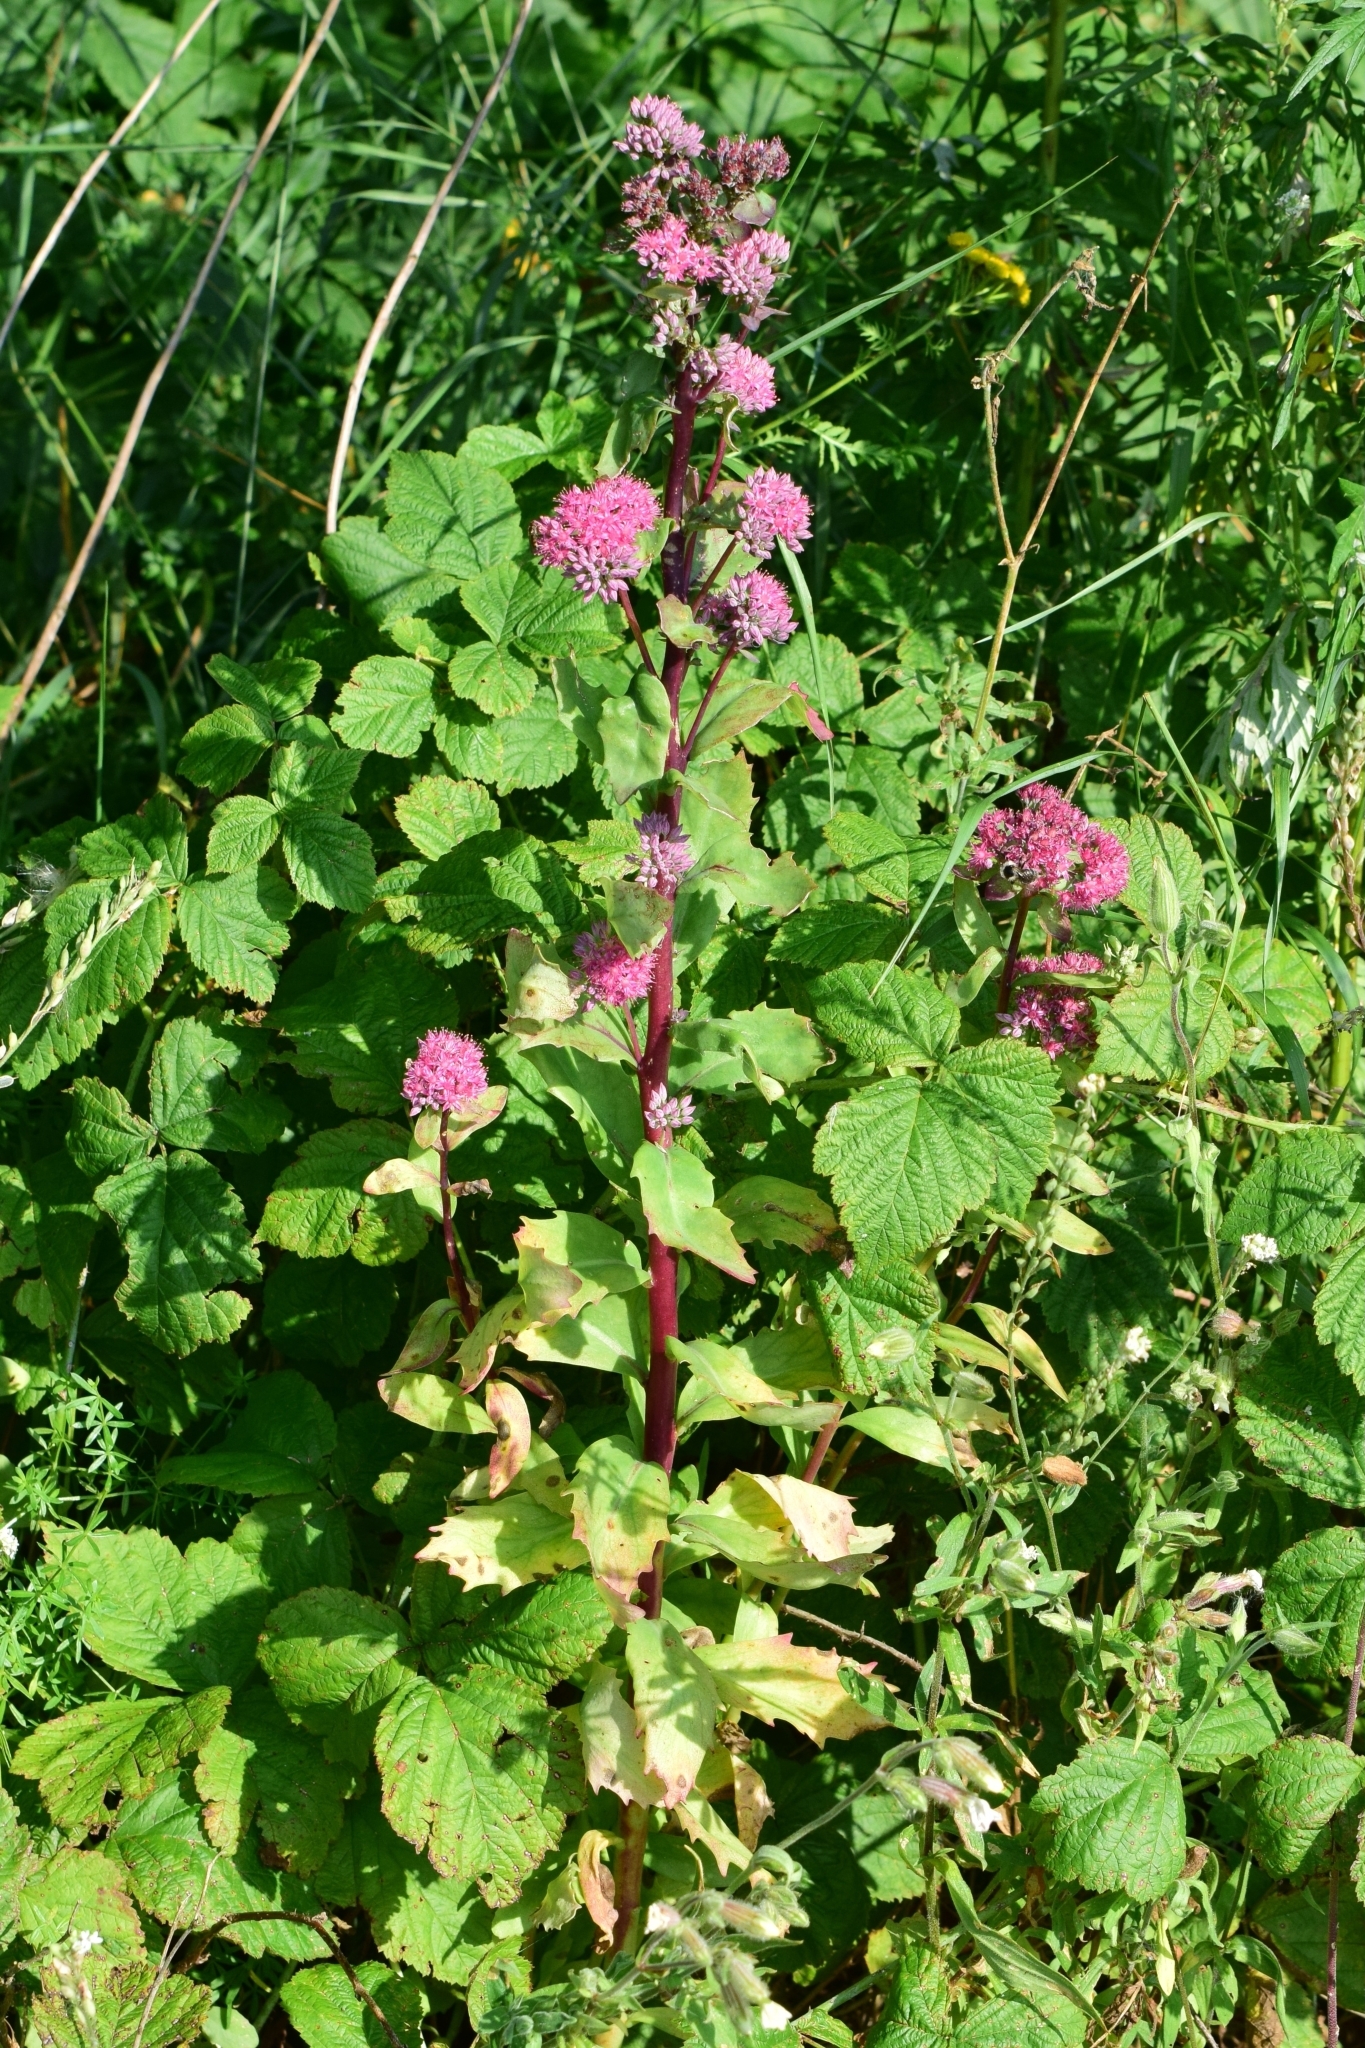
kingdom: Plantae
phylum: Tracheophyta
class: Magnoliopsida
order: Saxifragales
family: Crassulaceae
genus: Hylotelephium
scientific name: Hylotelephium telephium
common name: Live-forever
